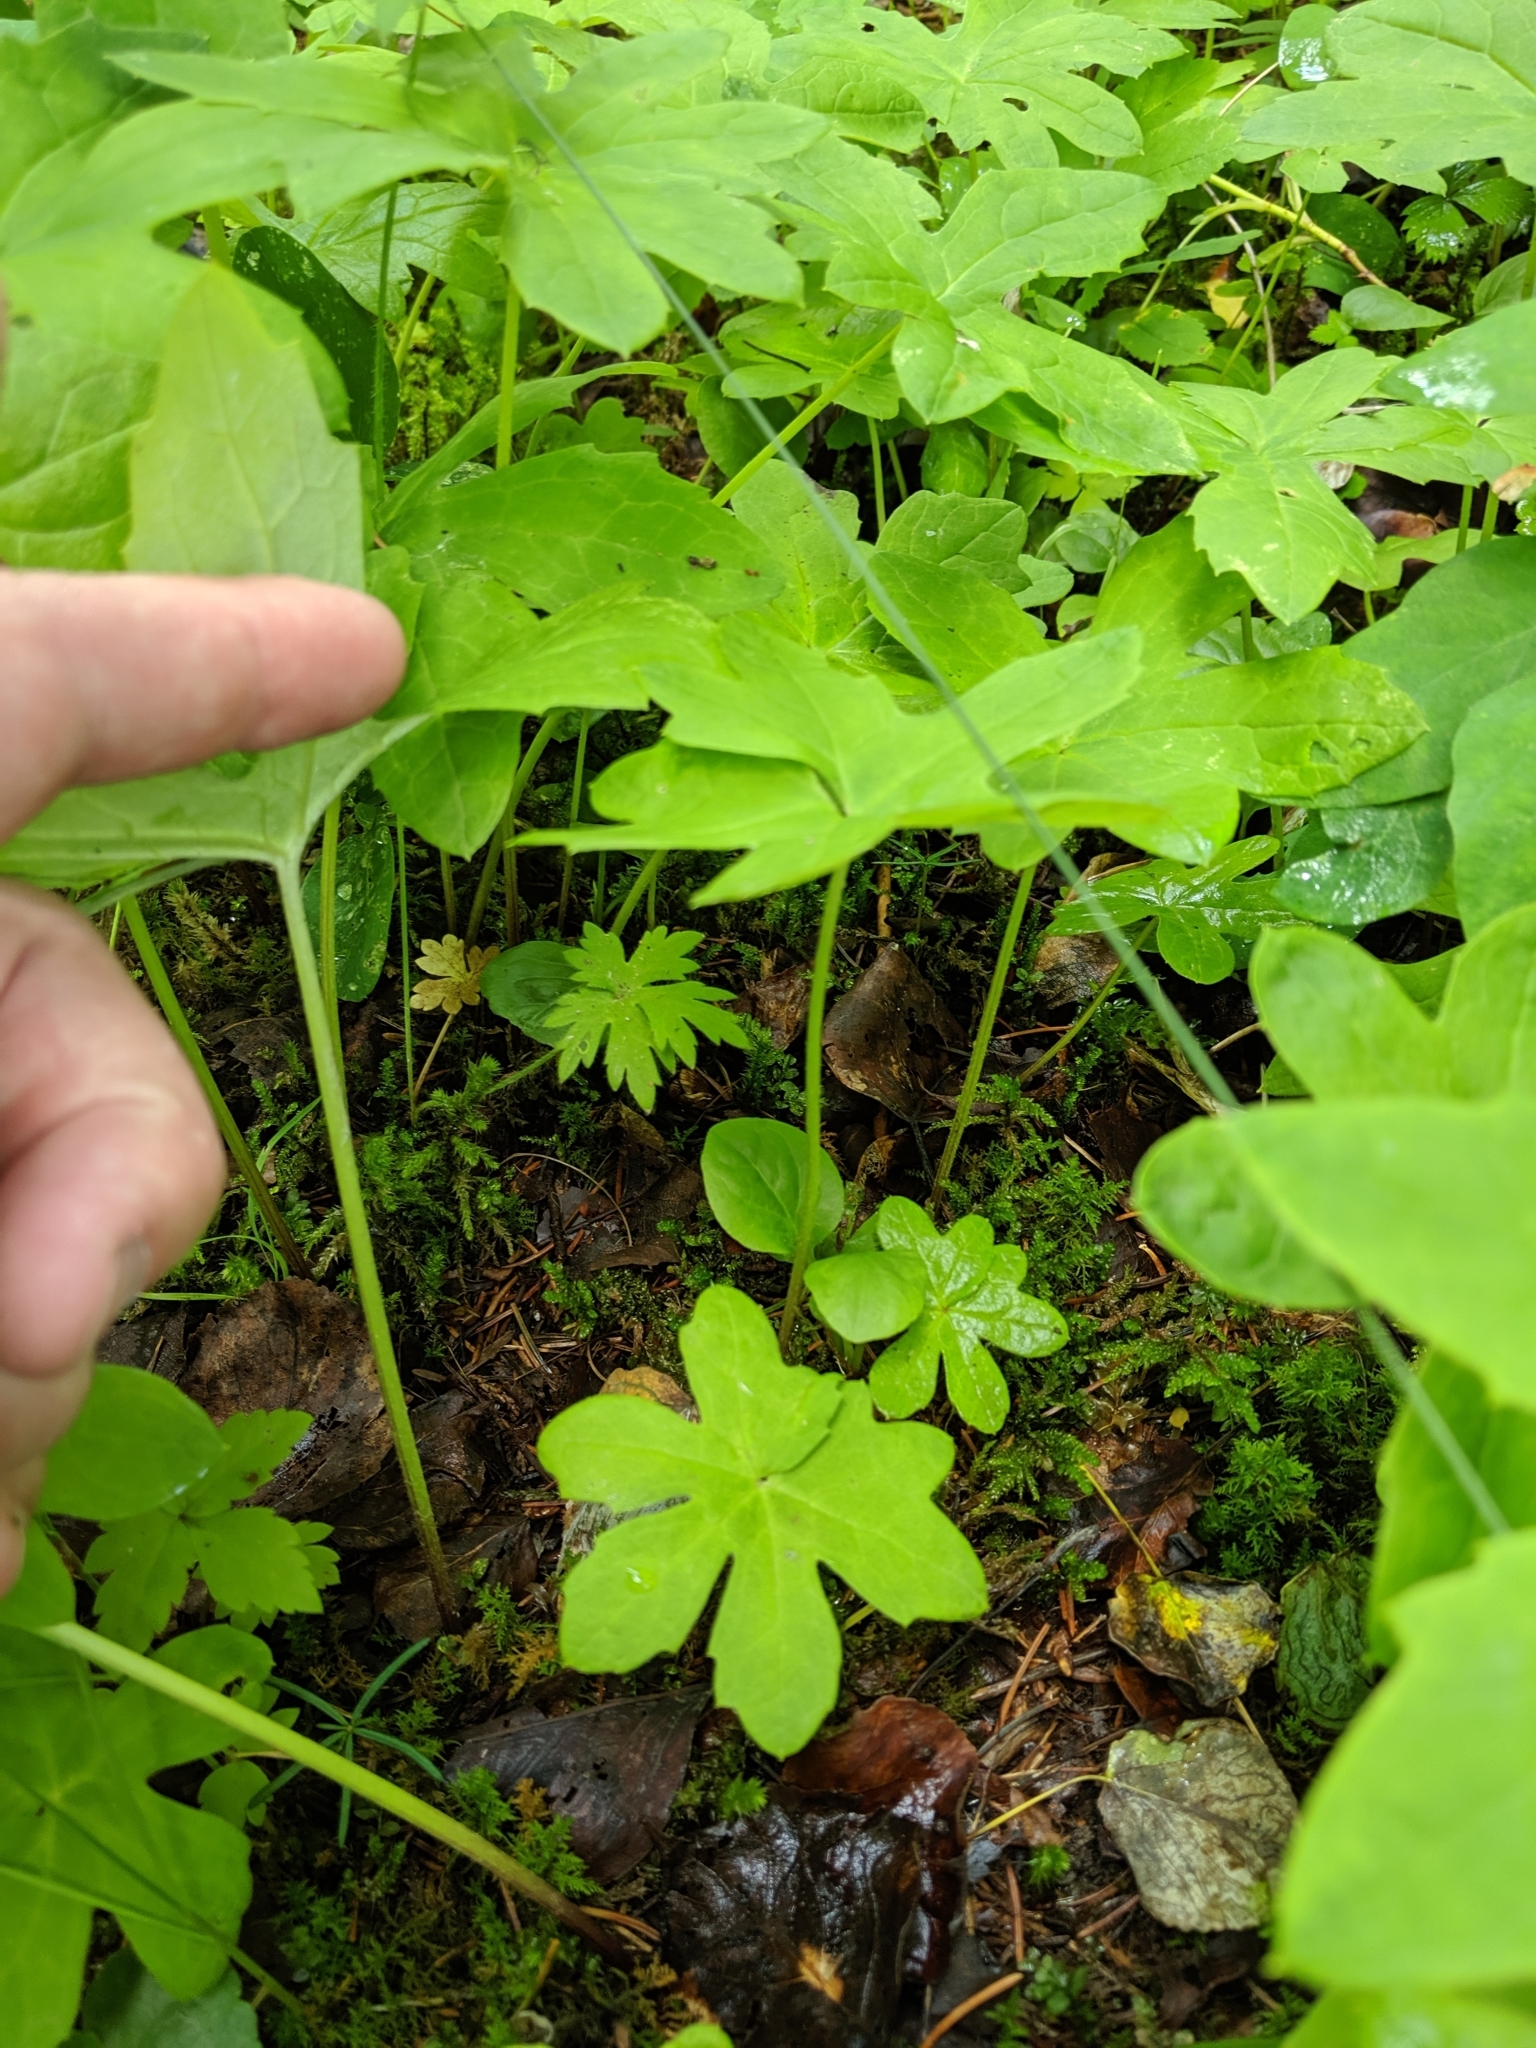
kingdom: Plantae
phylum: Tracheophyta
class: Magnoliopsida
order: Asterales
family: Asteraceae
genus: Petasites
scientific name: Petasites frigidus
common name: Arctic butterbur
